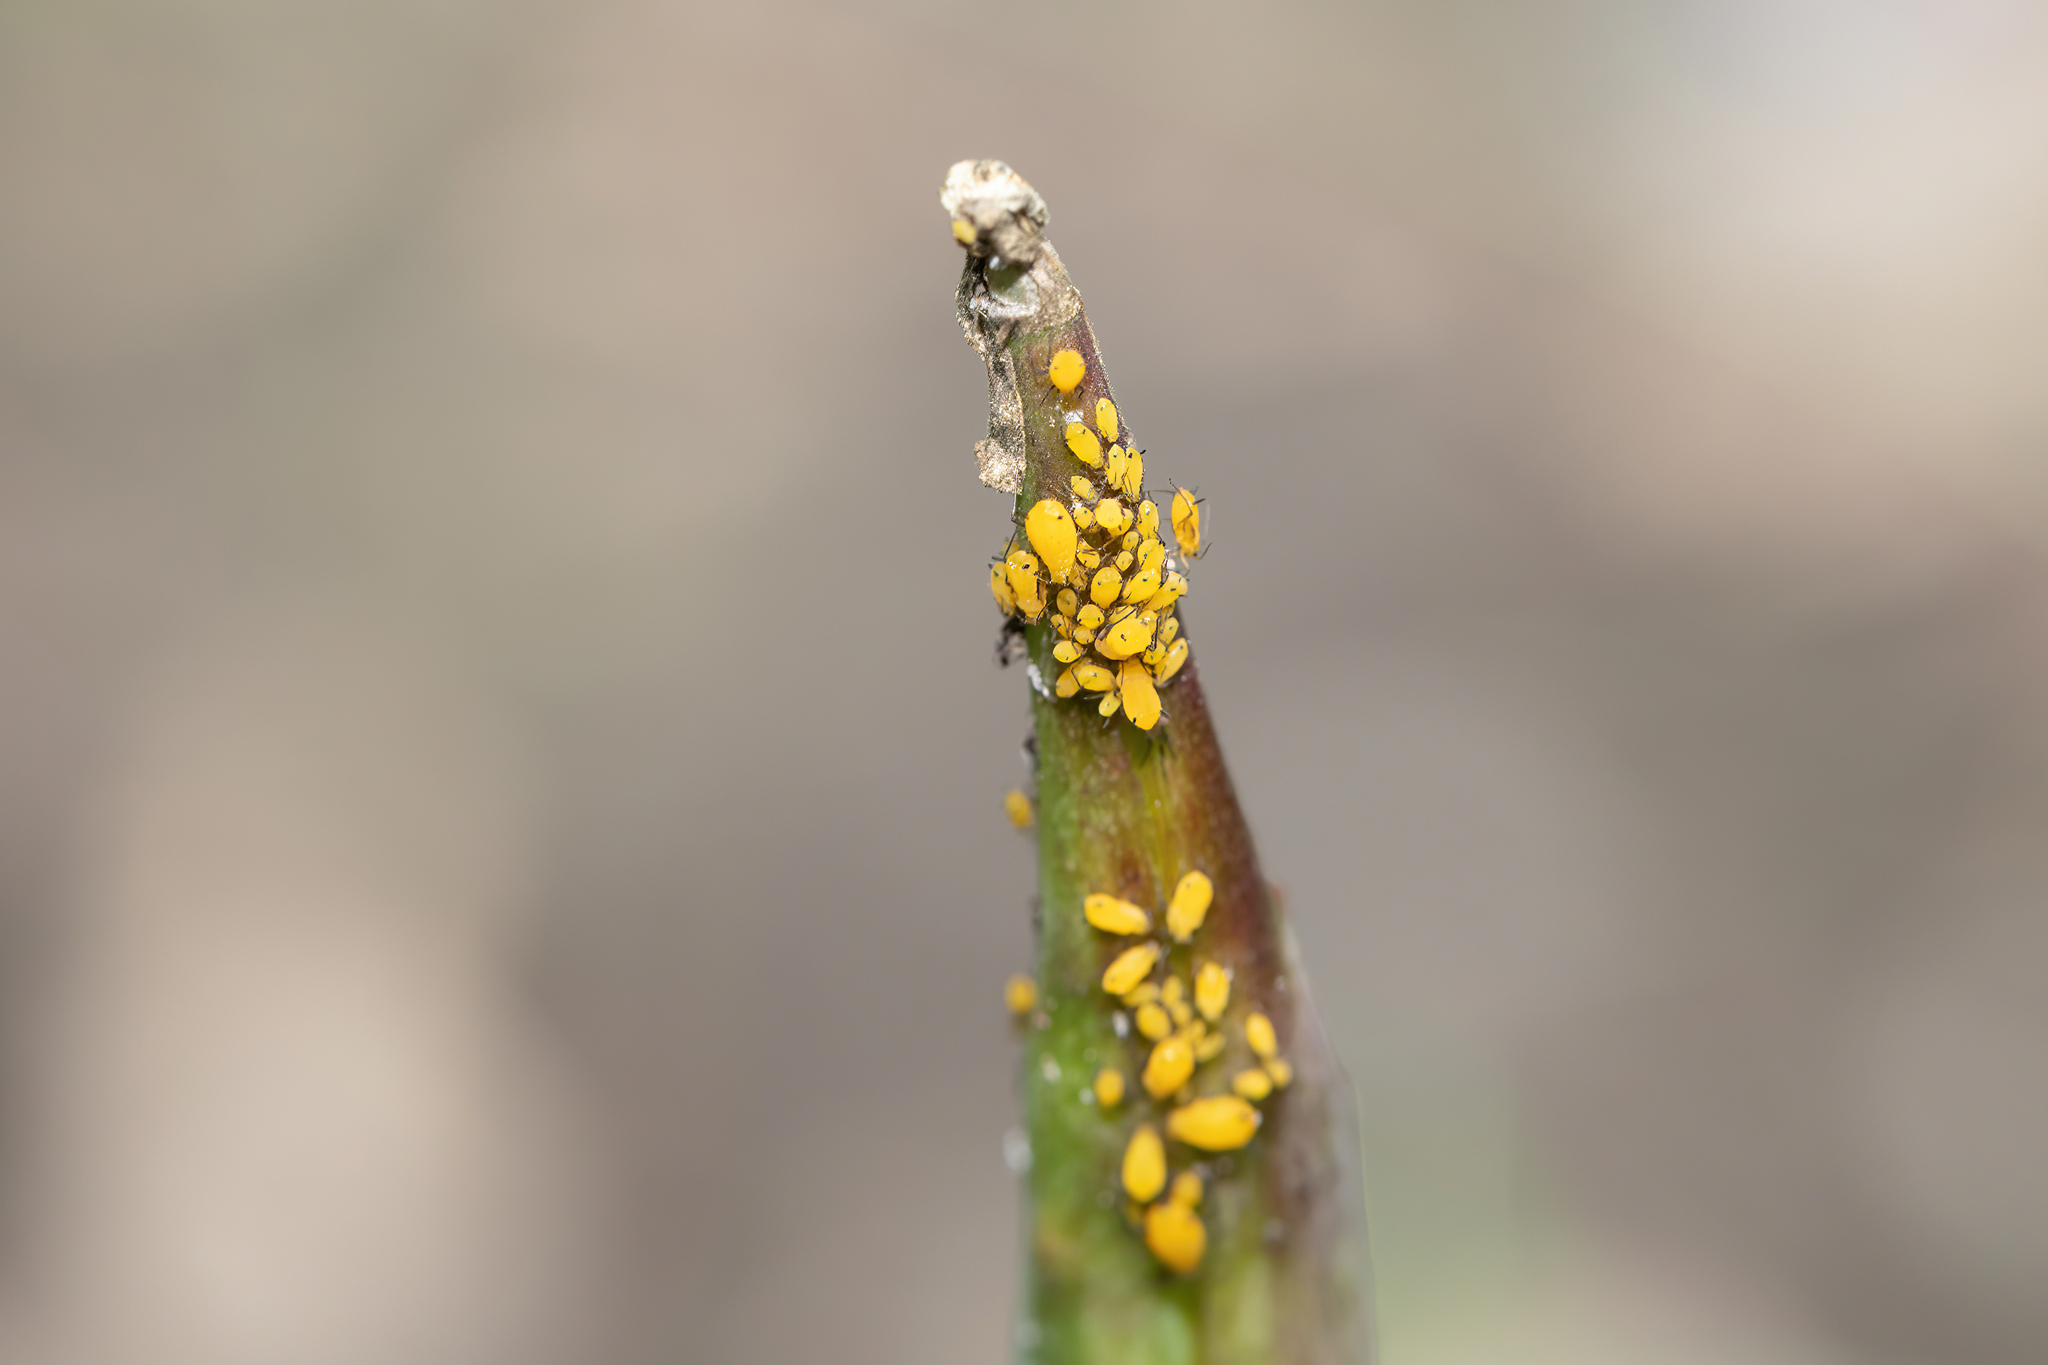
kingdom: Animalia
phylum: Arthropoda
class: Insecta
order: Hemiptera
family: Aphididae
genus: Aphis
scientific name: Aphis nerii
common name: Oleander aphid
